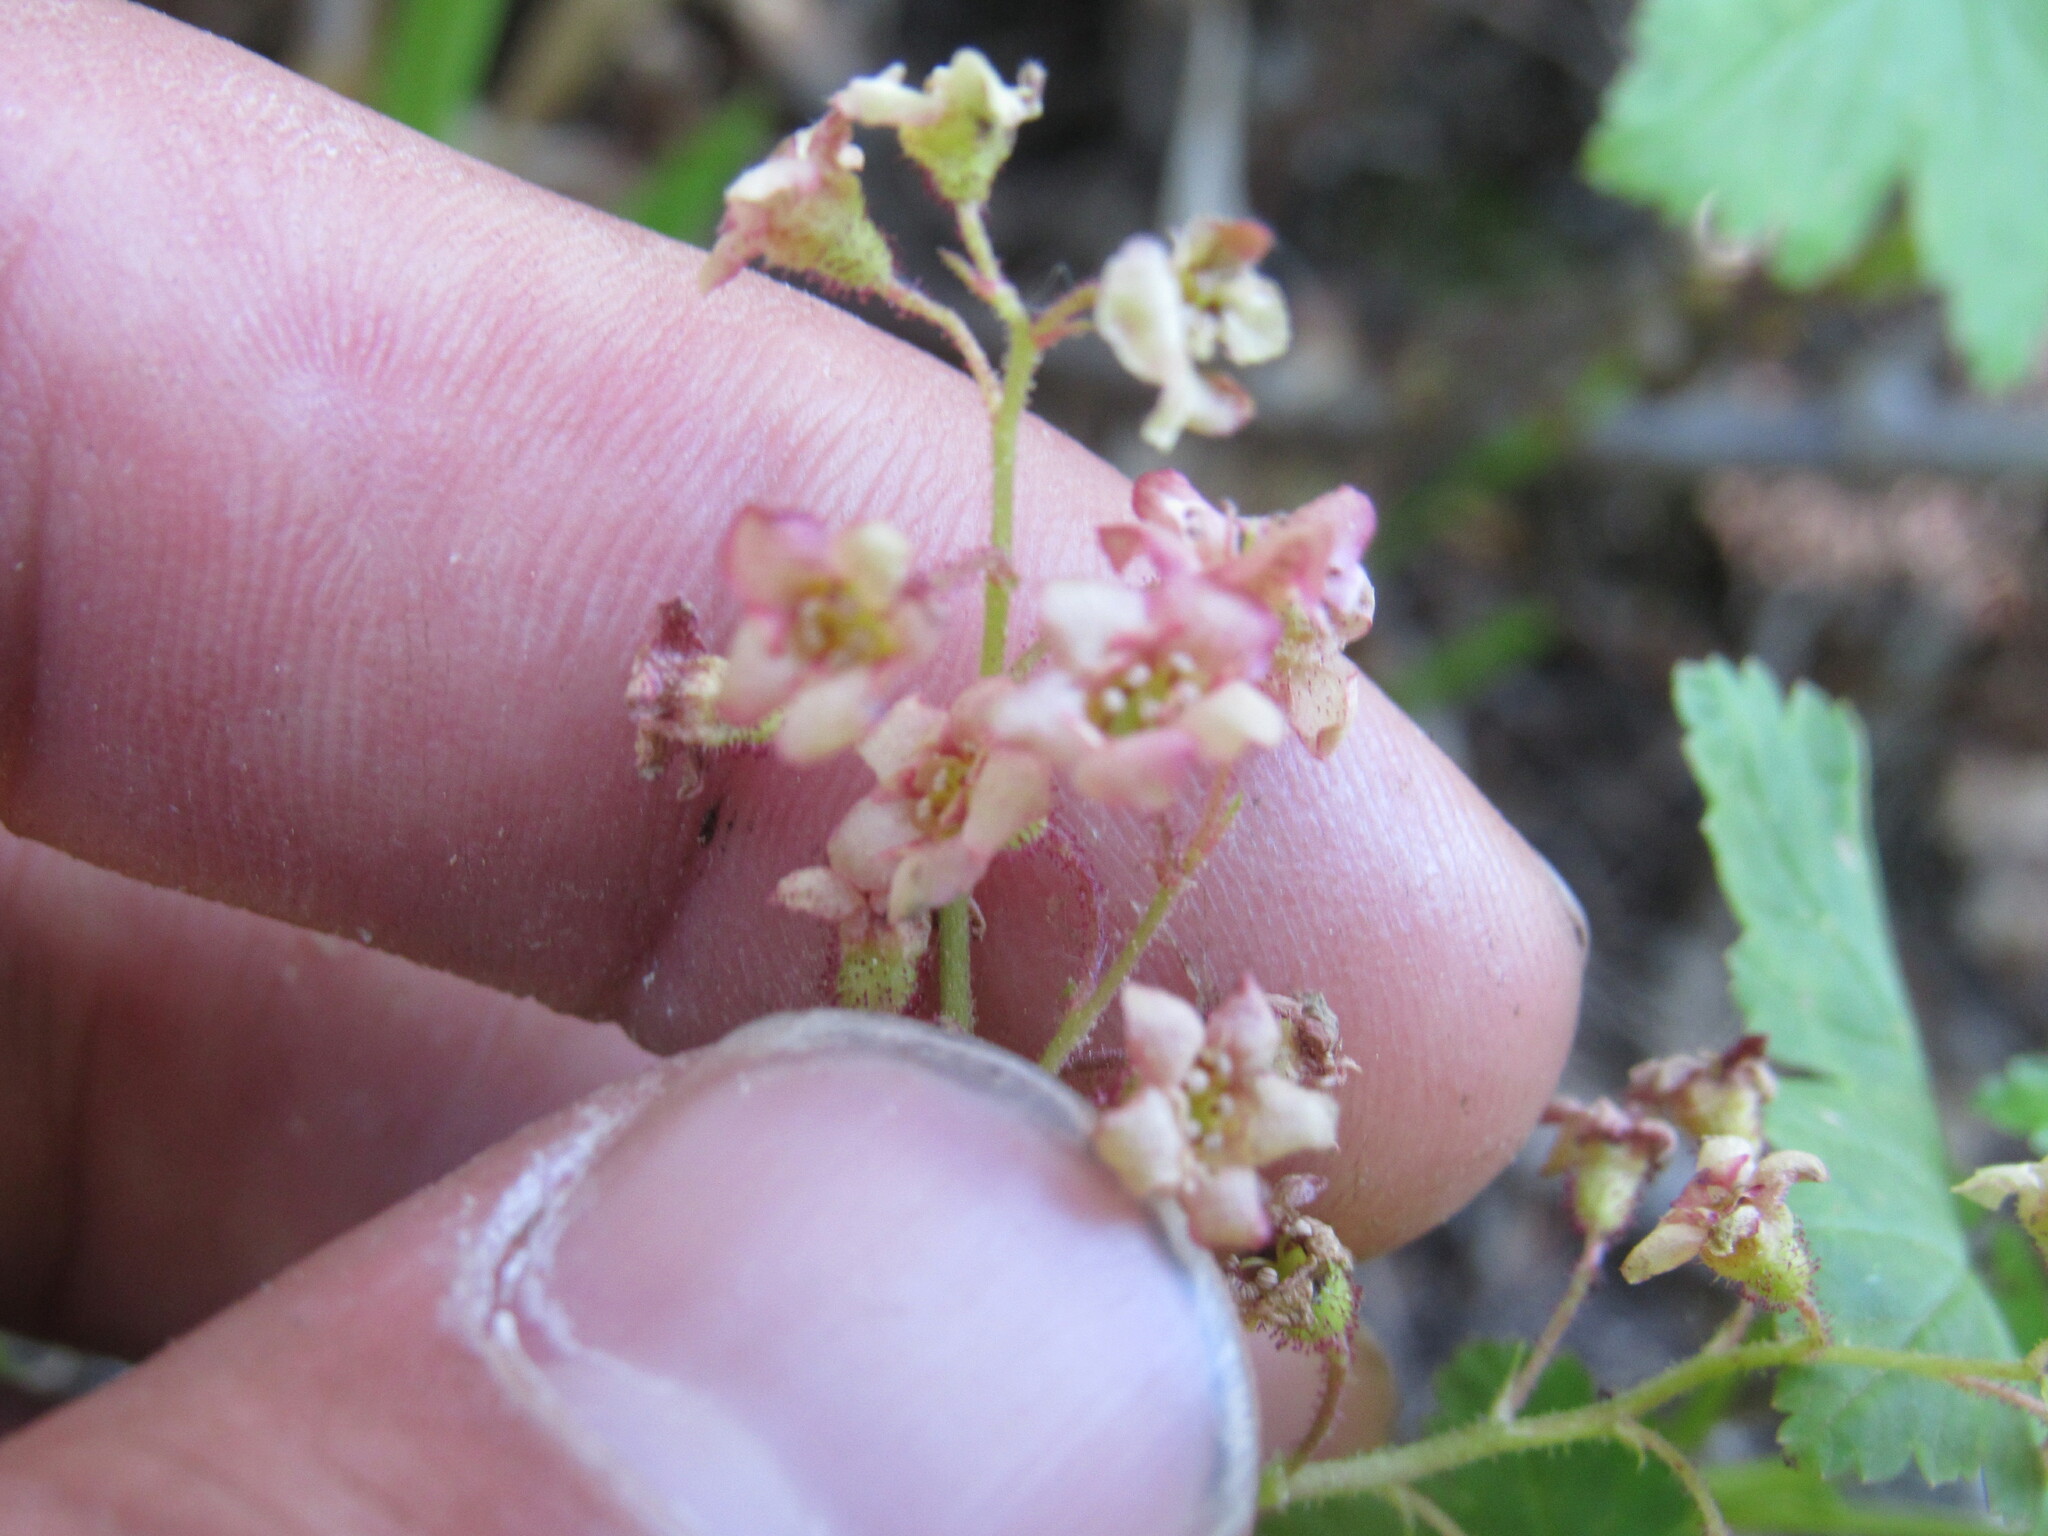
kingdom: Plantae
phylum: Tracheophyta
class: Magnoliopsida
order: Saxifragales
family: Grossulariaceae
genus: Ribes
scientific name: Ribes laxiflorum
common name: Spreading currant
